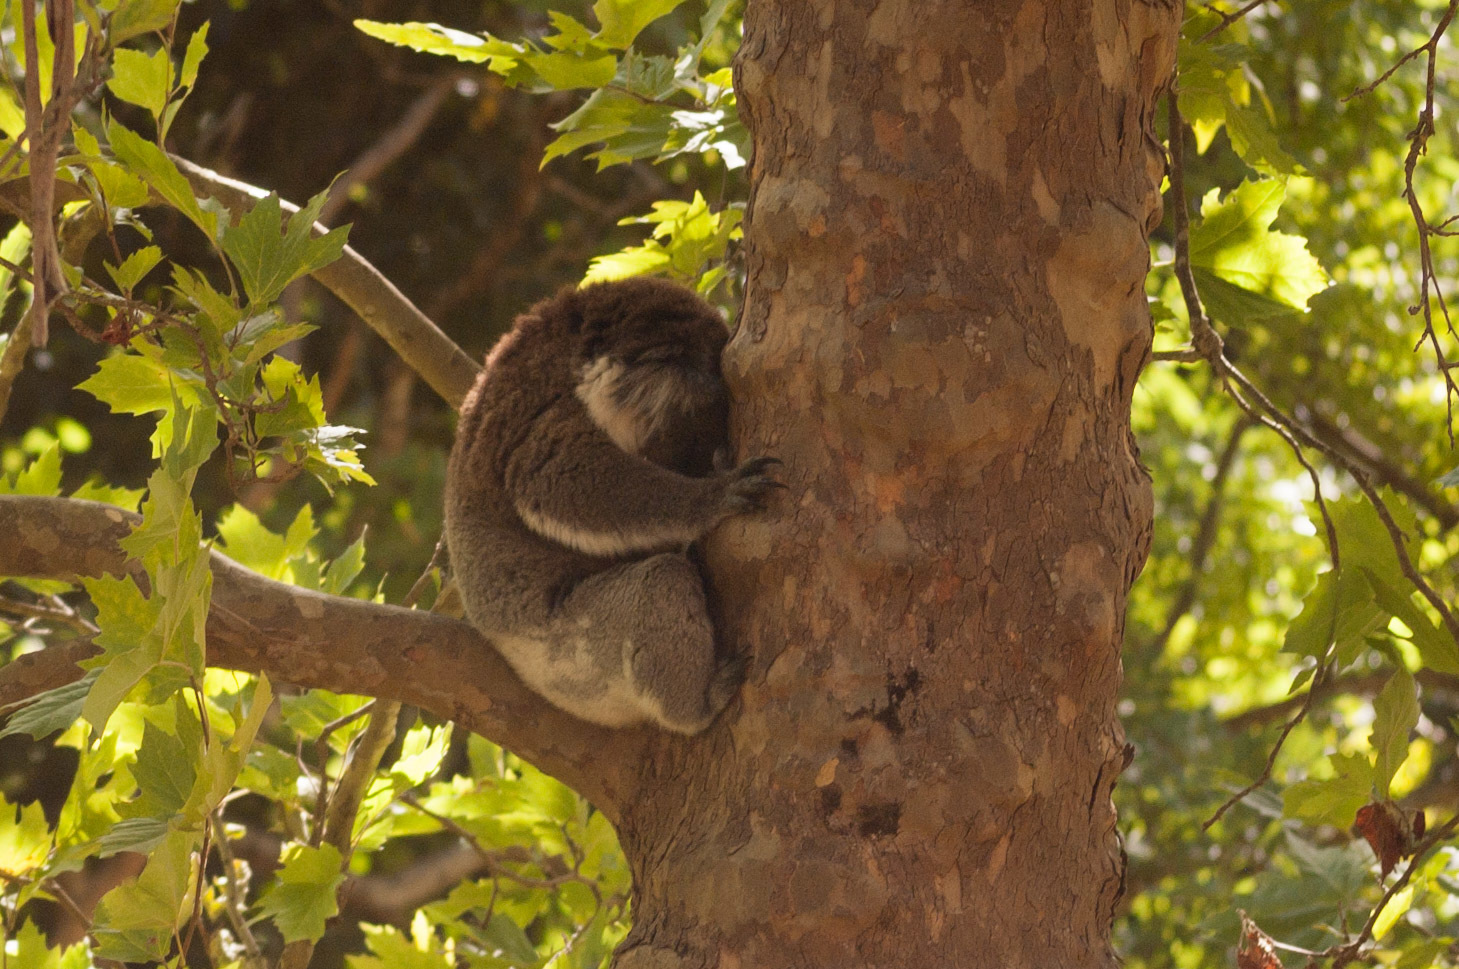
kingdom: Animalia
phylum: Chordata
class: Mammalia
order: Diprotodontia
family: Phascolarctidae
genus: Phascolarctos
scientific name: Phascolarctos cinereus
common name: Koala
